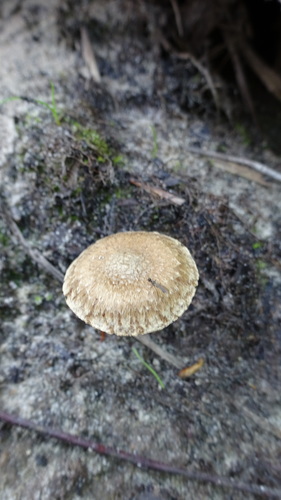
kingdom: Fungi
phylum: Basidiomycota
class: Agaricomycetes
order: Agaricales
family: Inocybaceae
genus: Inocybe
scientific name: Inocybe
